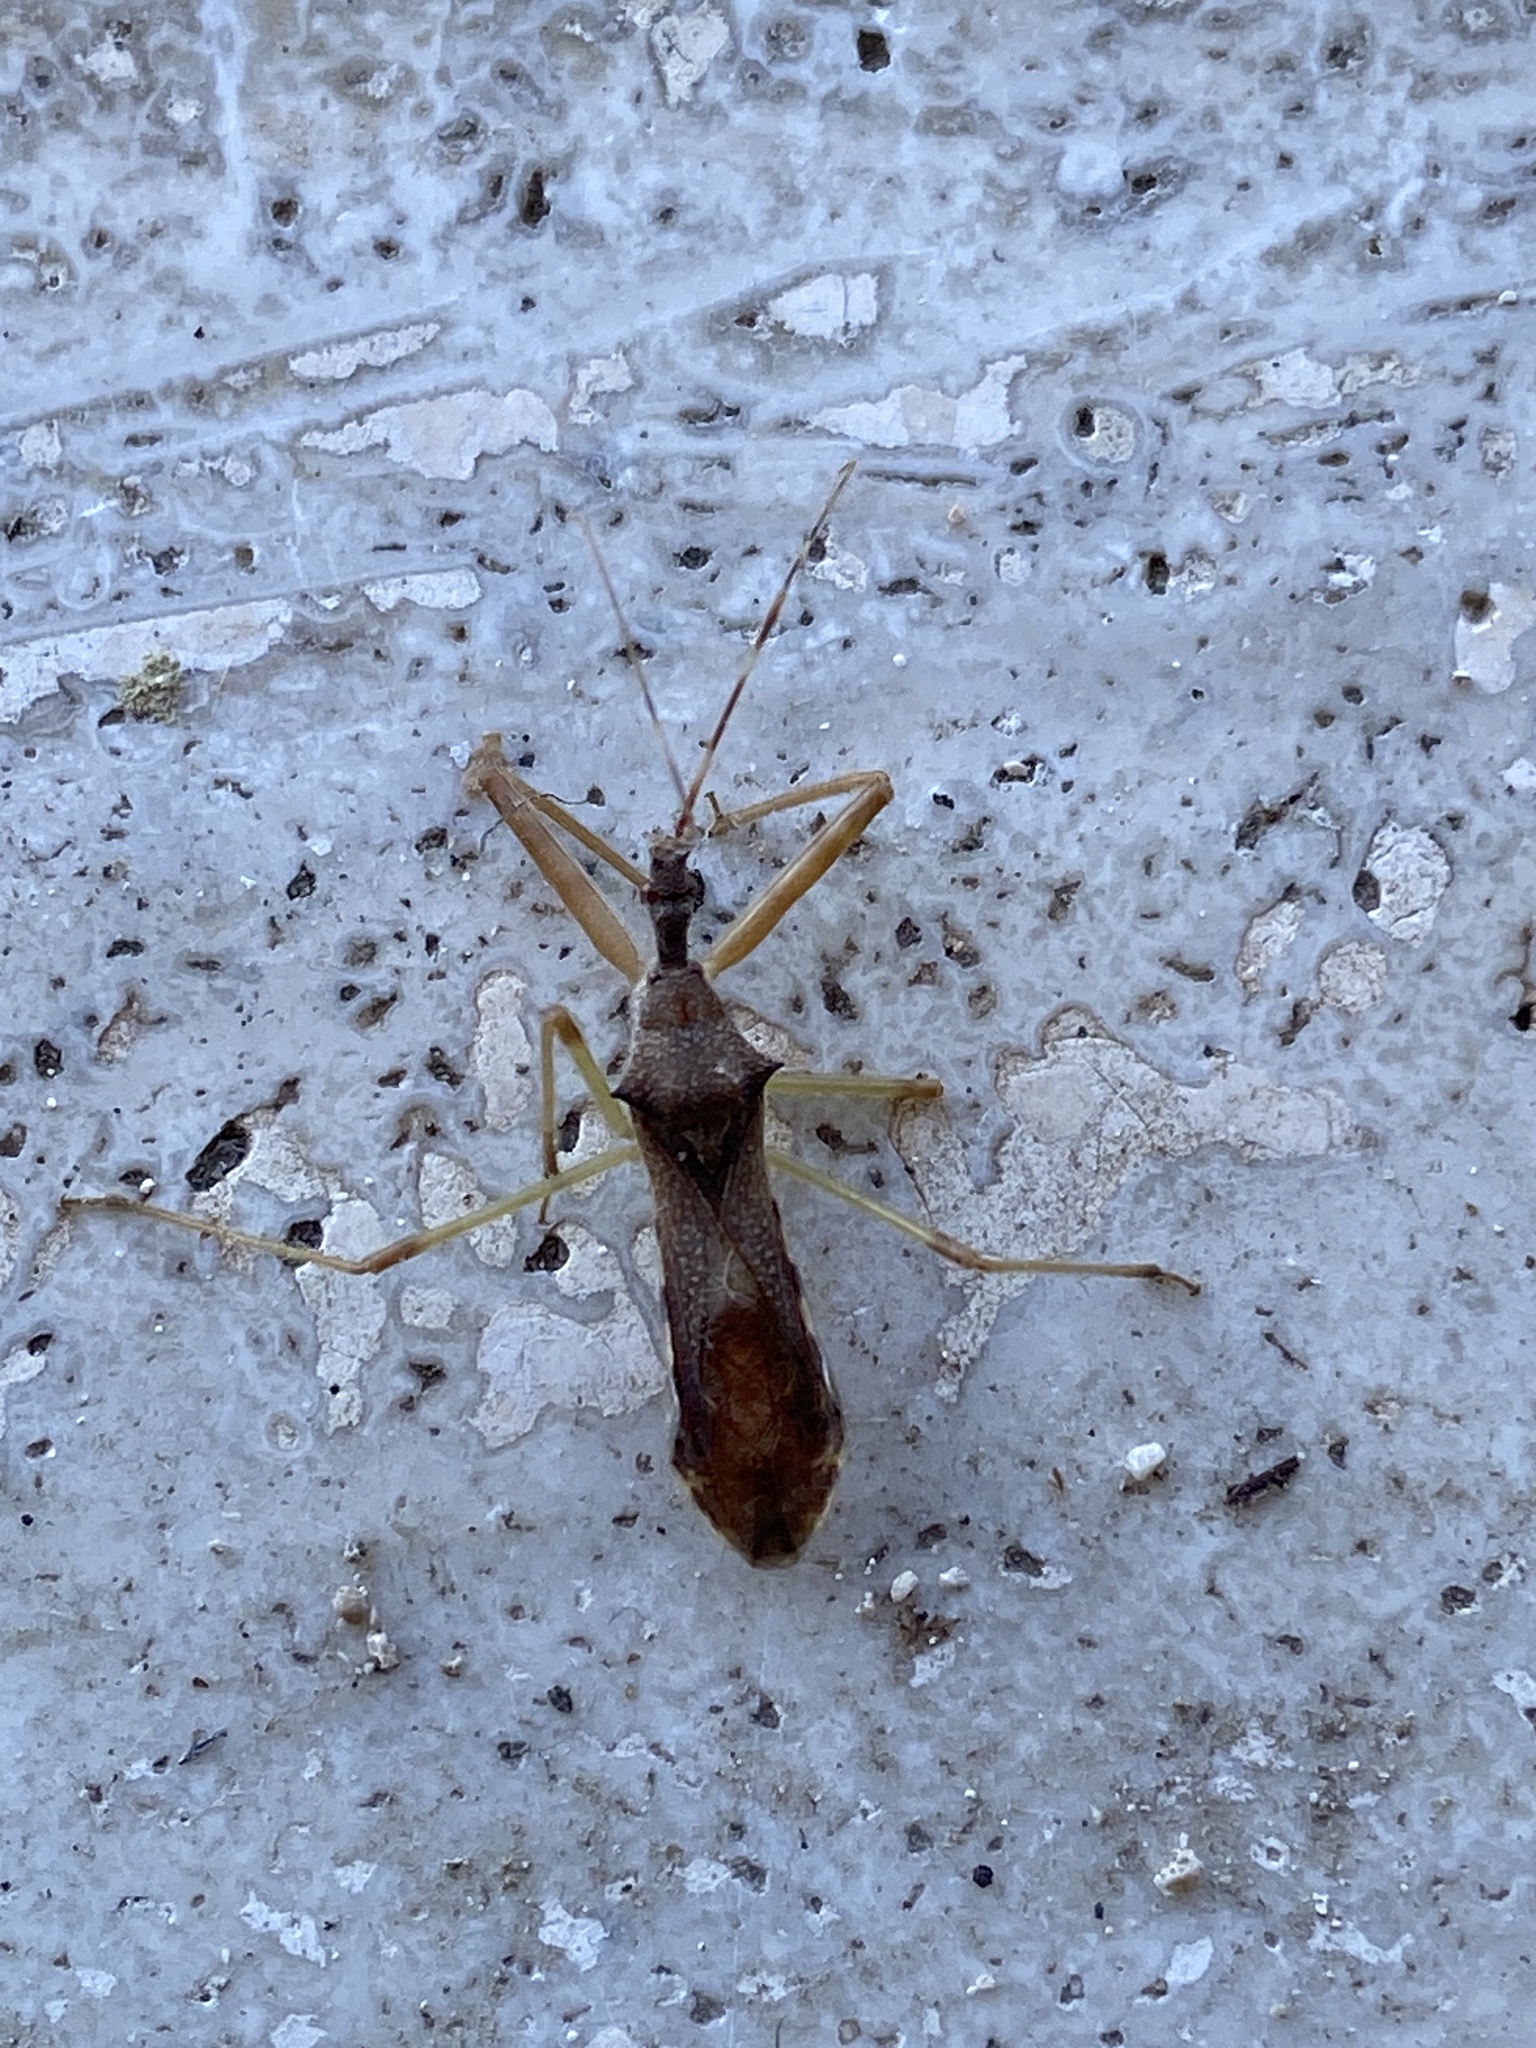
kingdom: Animalia
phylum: Arthropoda
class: Insecta
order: Hemiptera
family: Reduviidae
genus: Nagusta
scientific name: Nagusta goedelii
